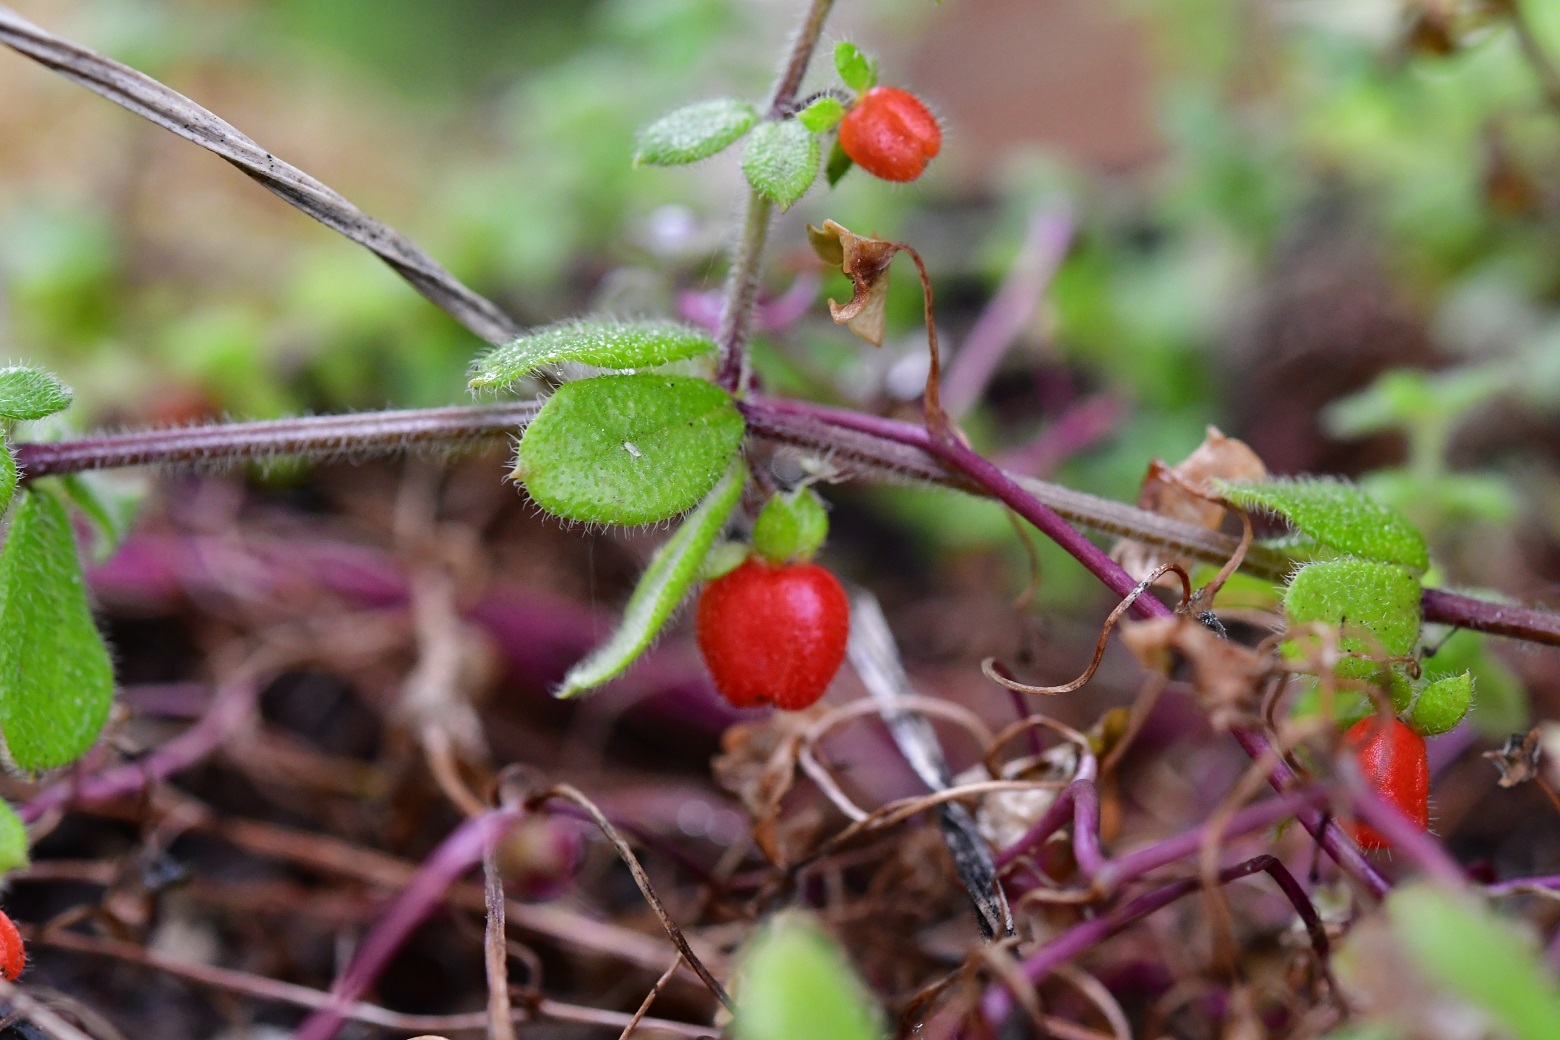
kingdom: Plantae
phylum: Tracheophyta
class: Magnoliopsida
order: Gentianales
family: Rubiaceae
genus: Galium
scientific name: Galium hypocarpium
